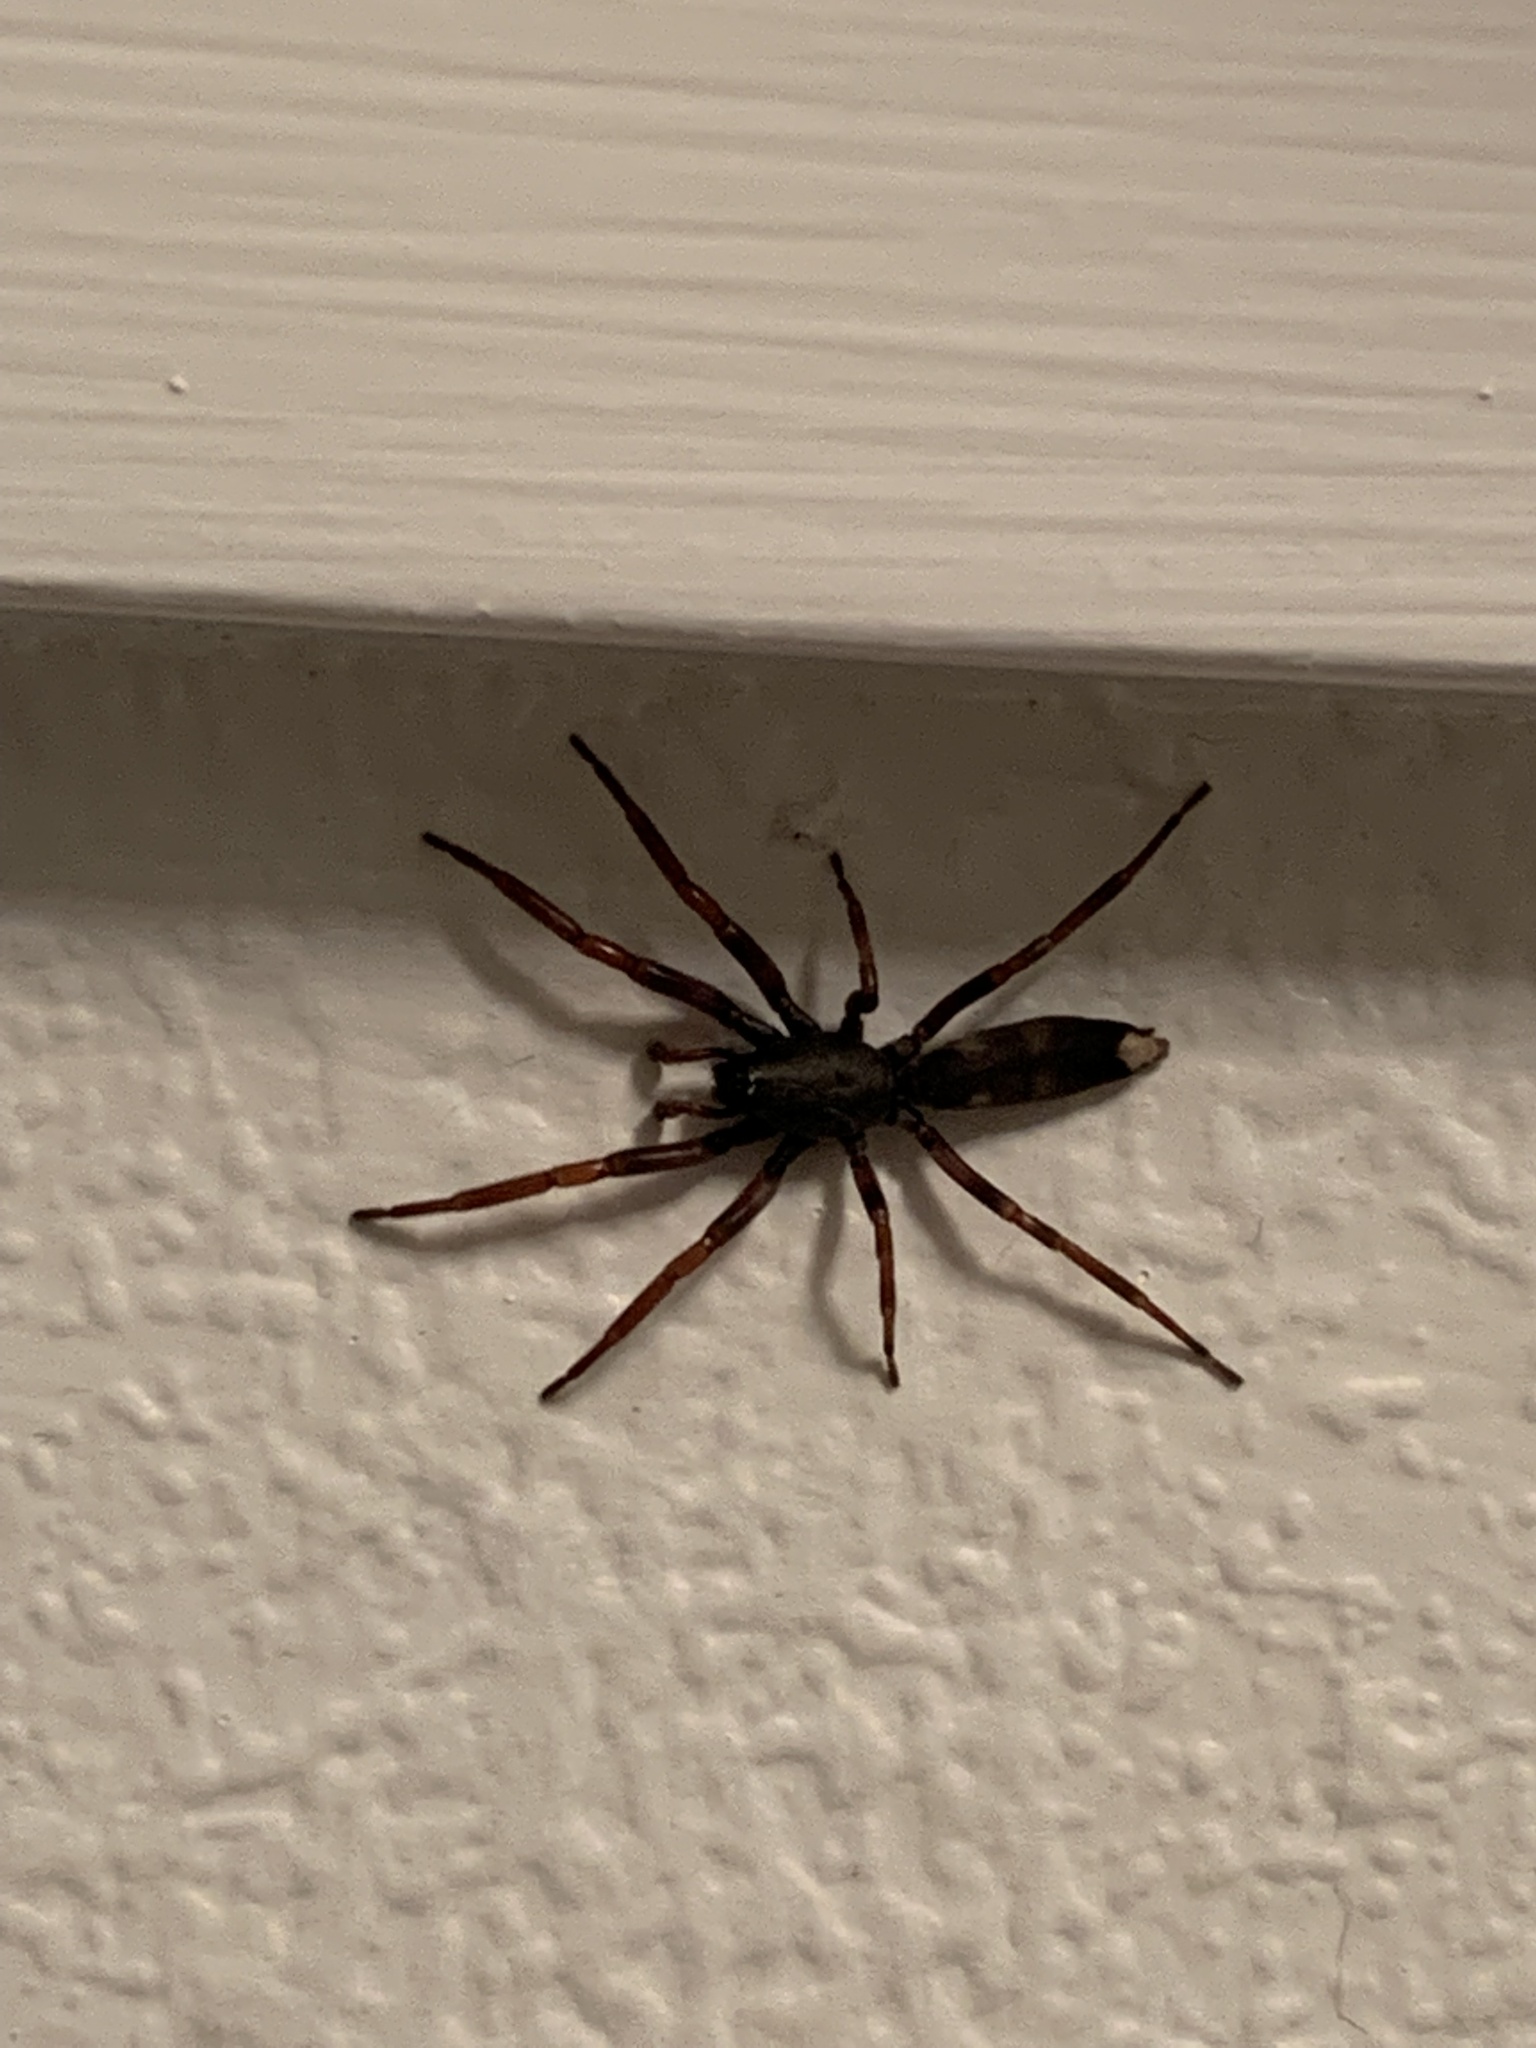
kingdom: Animalia
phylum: Arthropoda
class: Arachnida
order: Araneae
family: Lamponidae
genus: Lampona
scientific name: Lampona murina
